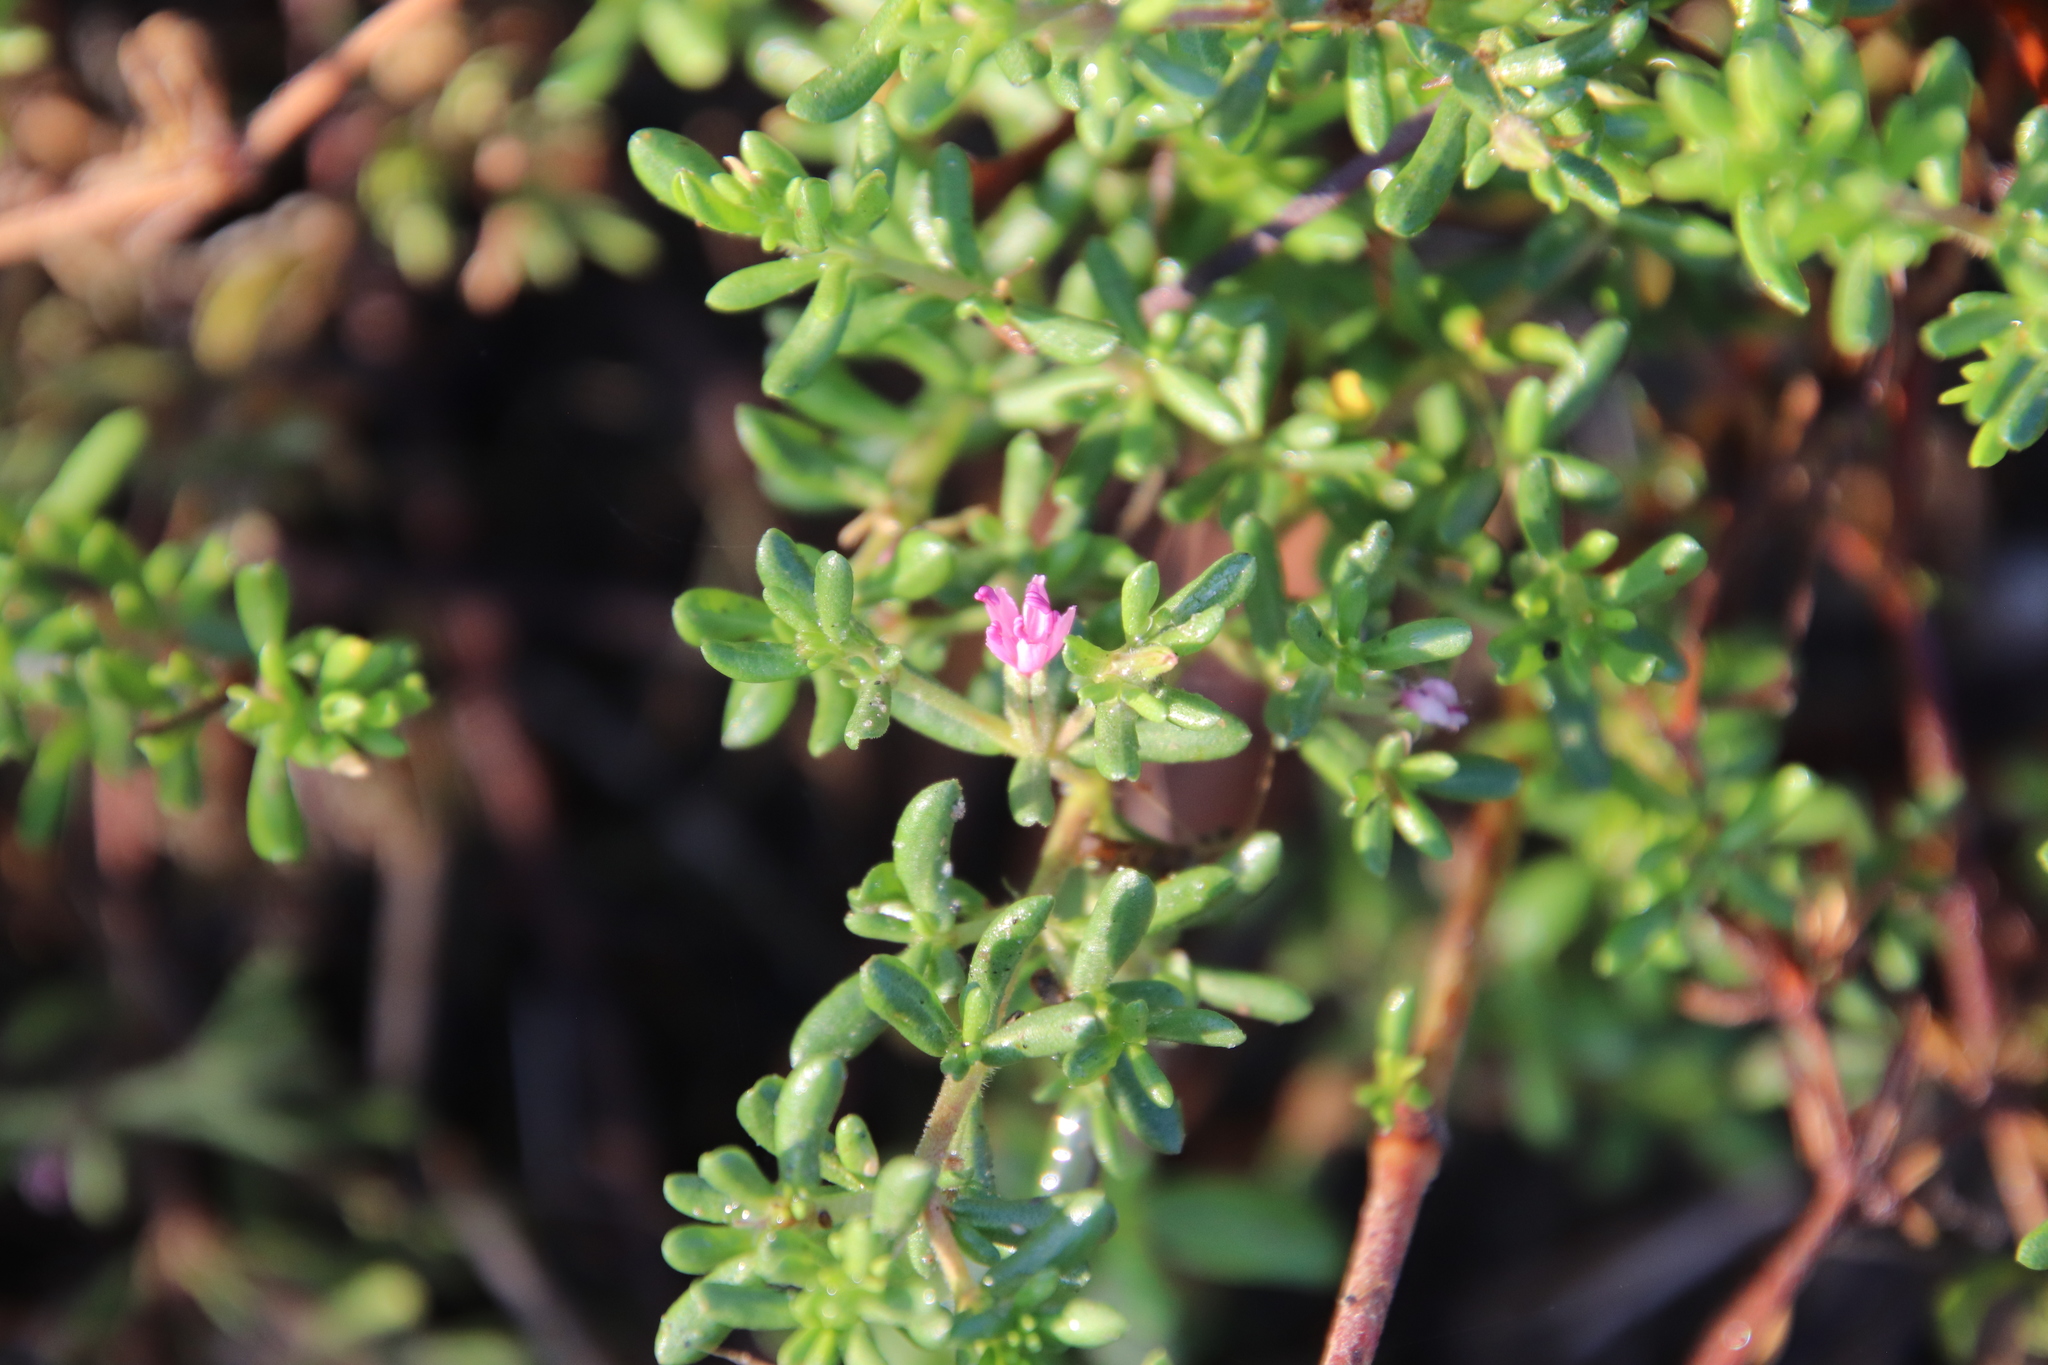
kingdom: Plantae
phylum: Tracheophyta
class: Magnoliopsida
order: Caryophyllales
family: Frankeniaceae
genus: Frankenia
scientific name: Frankenia salina
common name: Alkali seaheath
